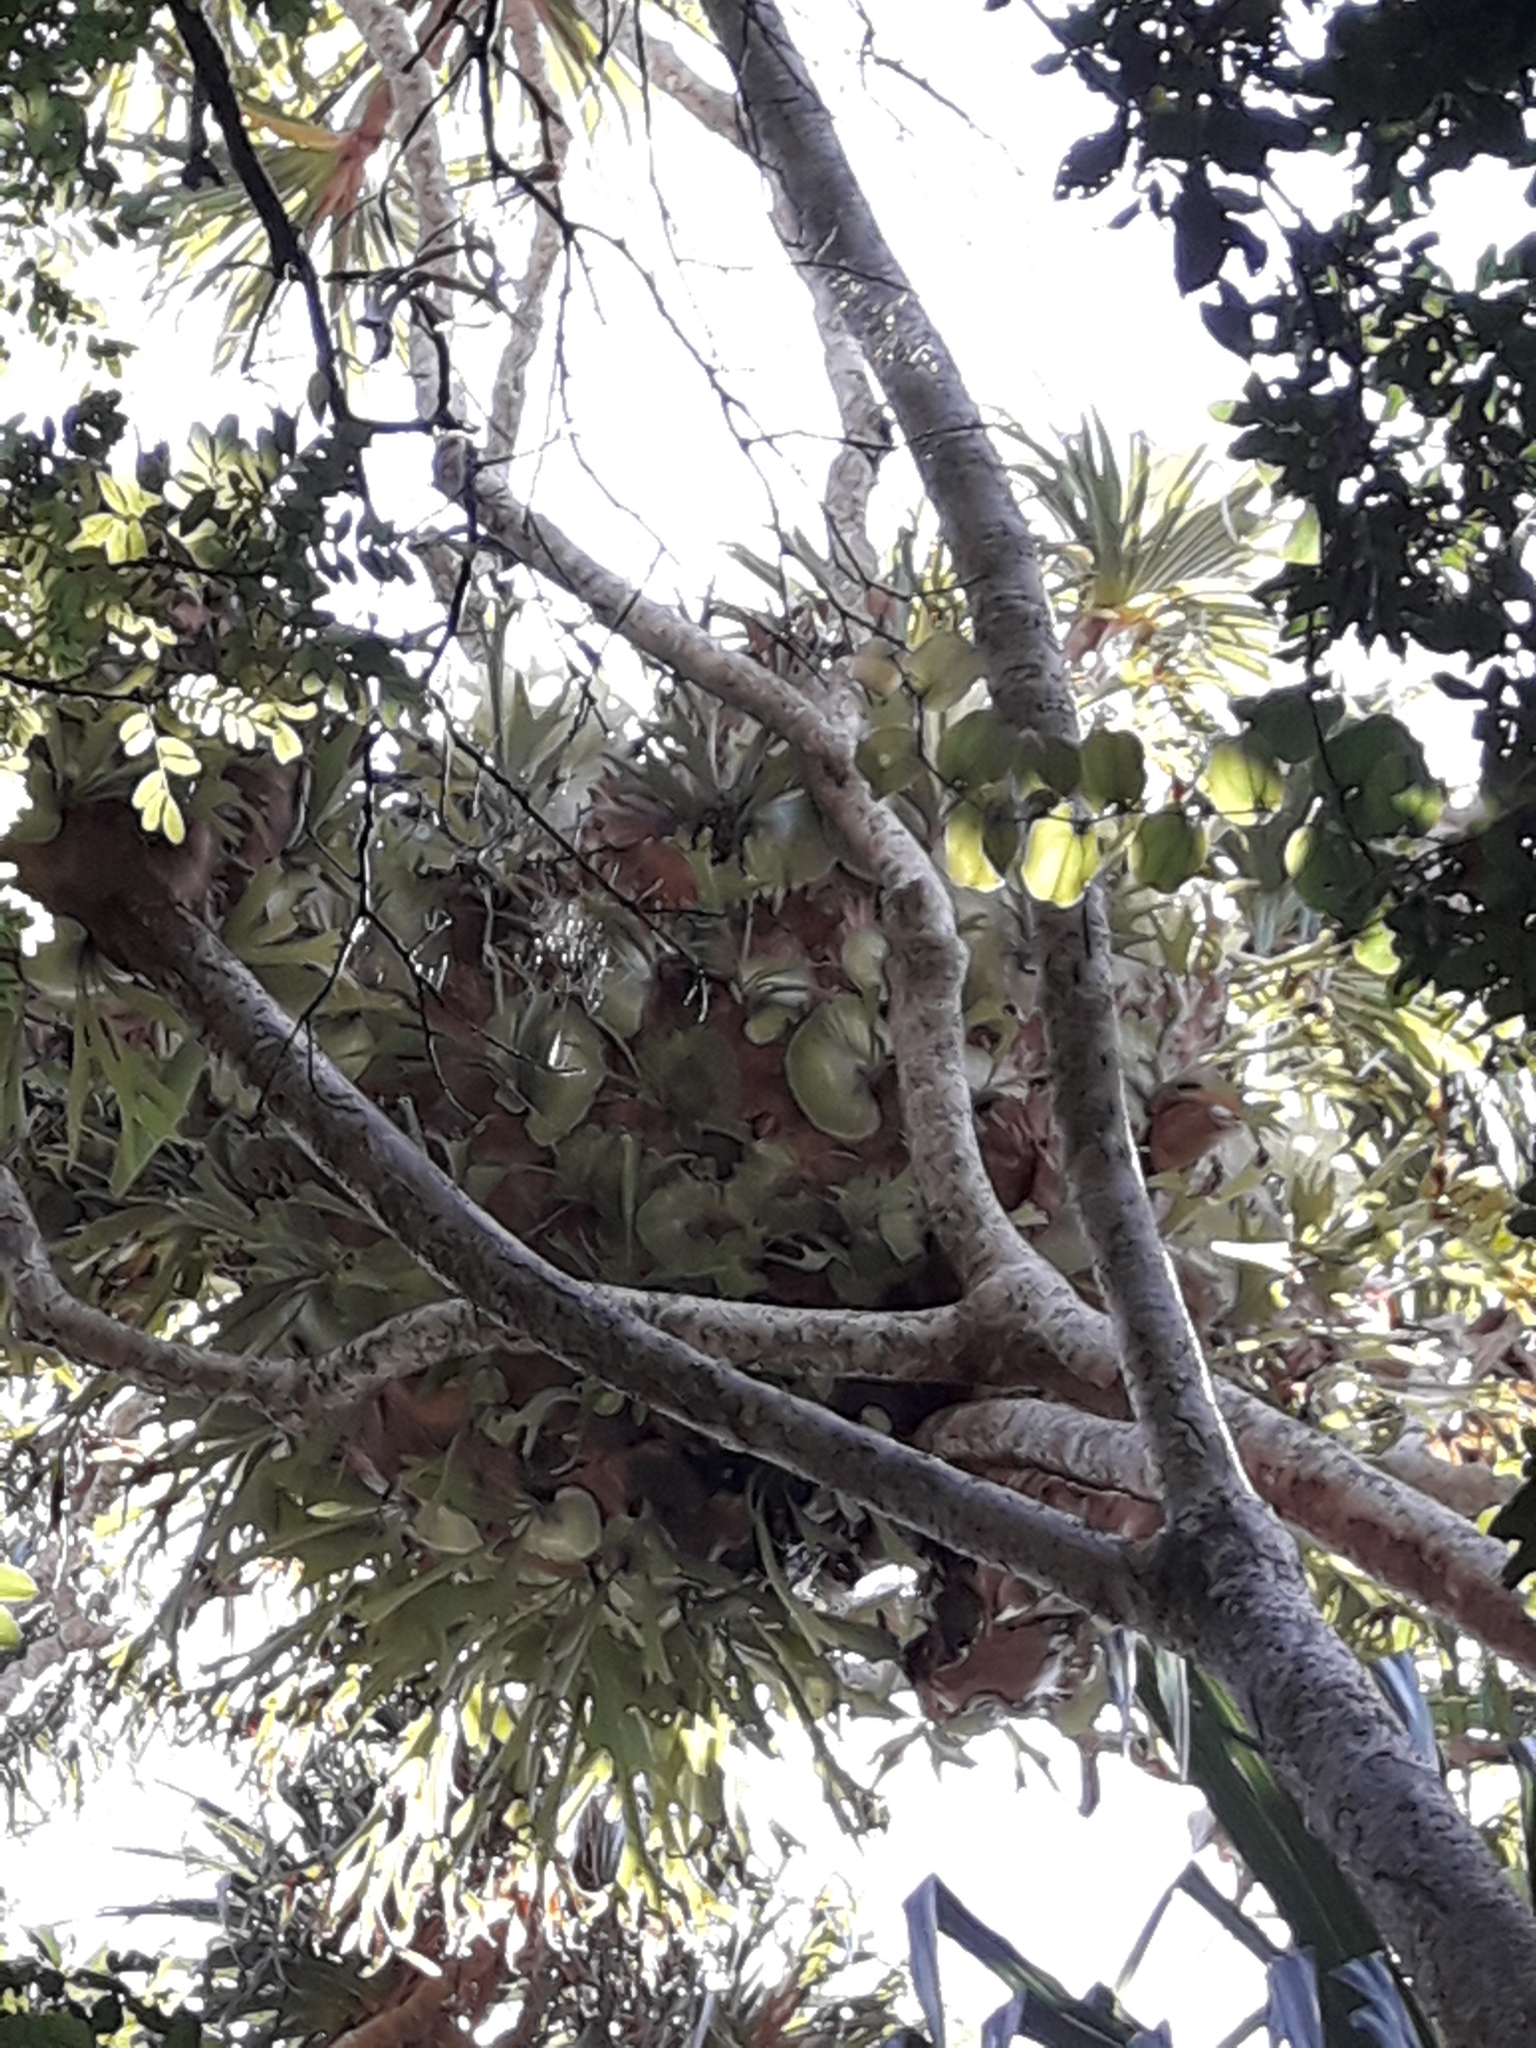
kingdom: Plantae
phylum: Tracheophyta
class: Polypodiopsida
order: Polypodiales
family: Polypodiaceae
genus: Platycerium
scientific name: Platycerium bifurcatum
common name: Elkhorn fern
